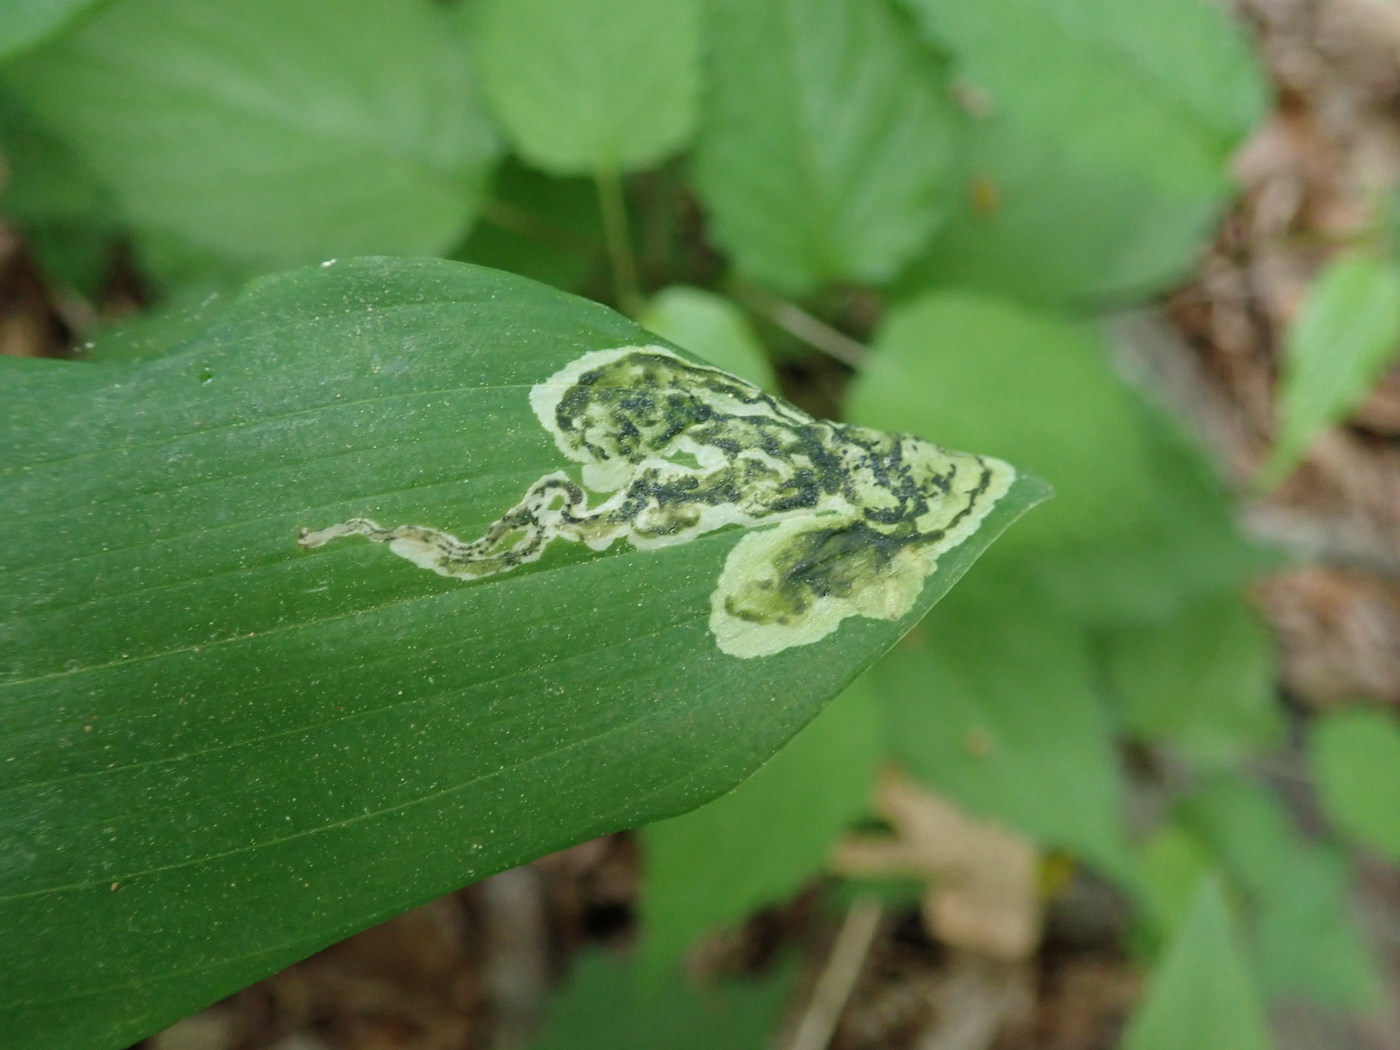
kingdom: Animalia
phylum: Arthropoda
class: Insecta
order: Diptera
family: Scathophagidae
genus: Leptopa
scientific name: Leptopa
